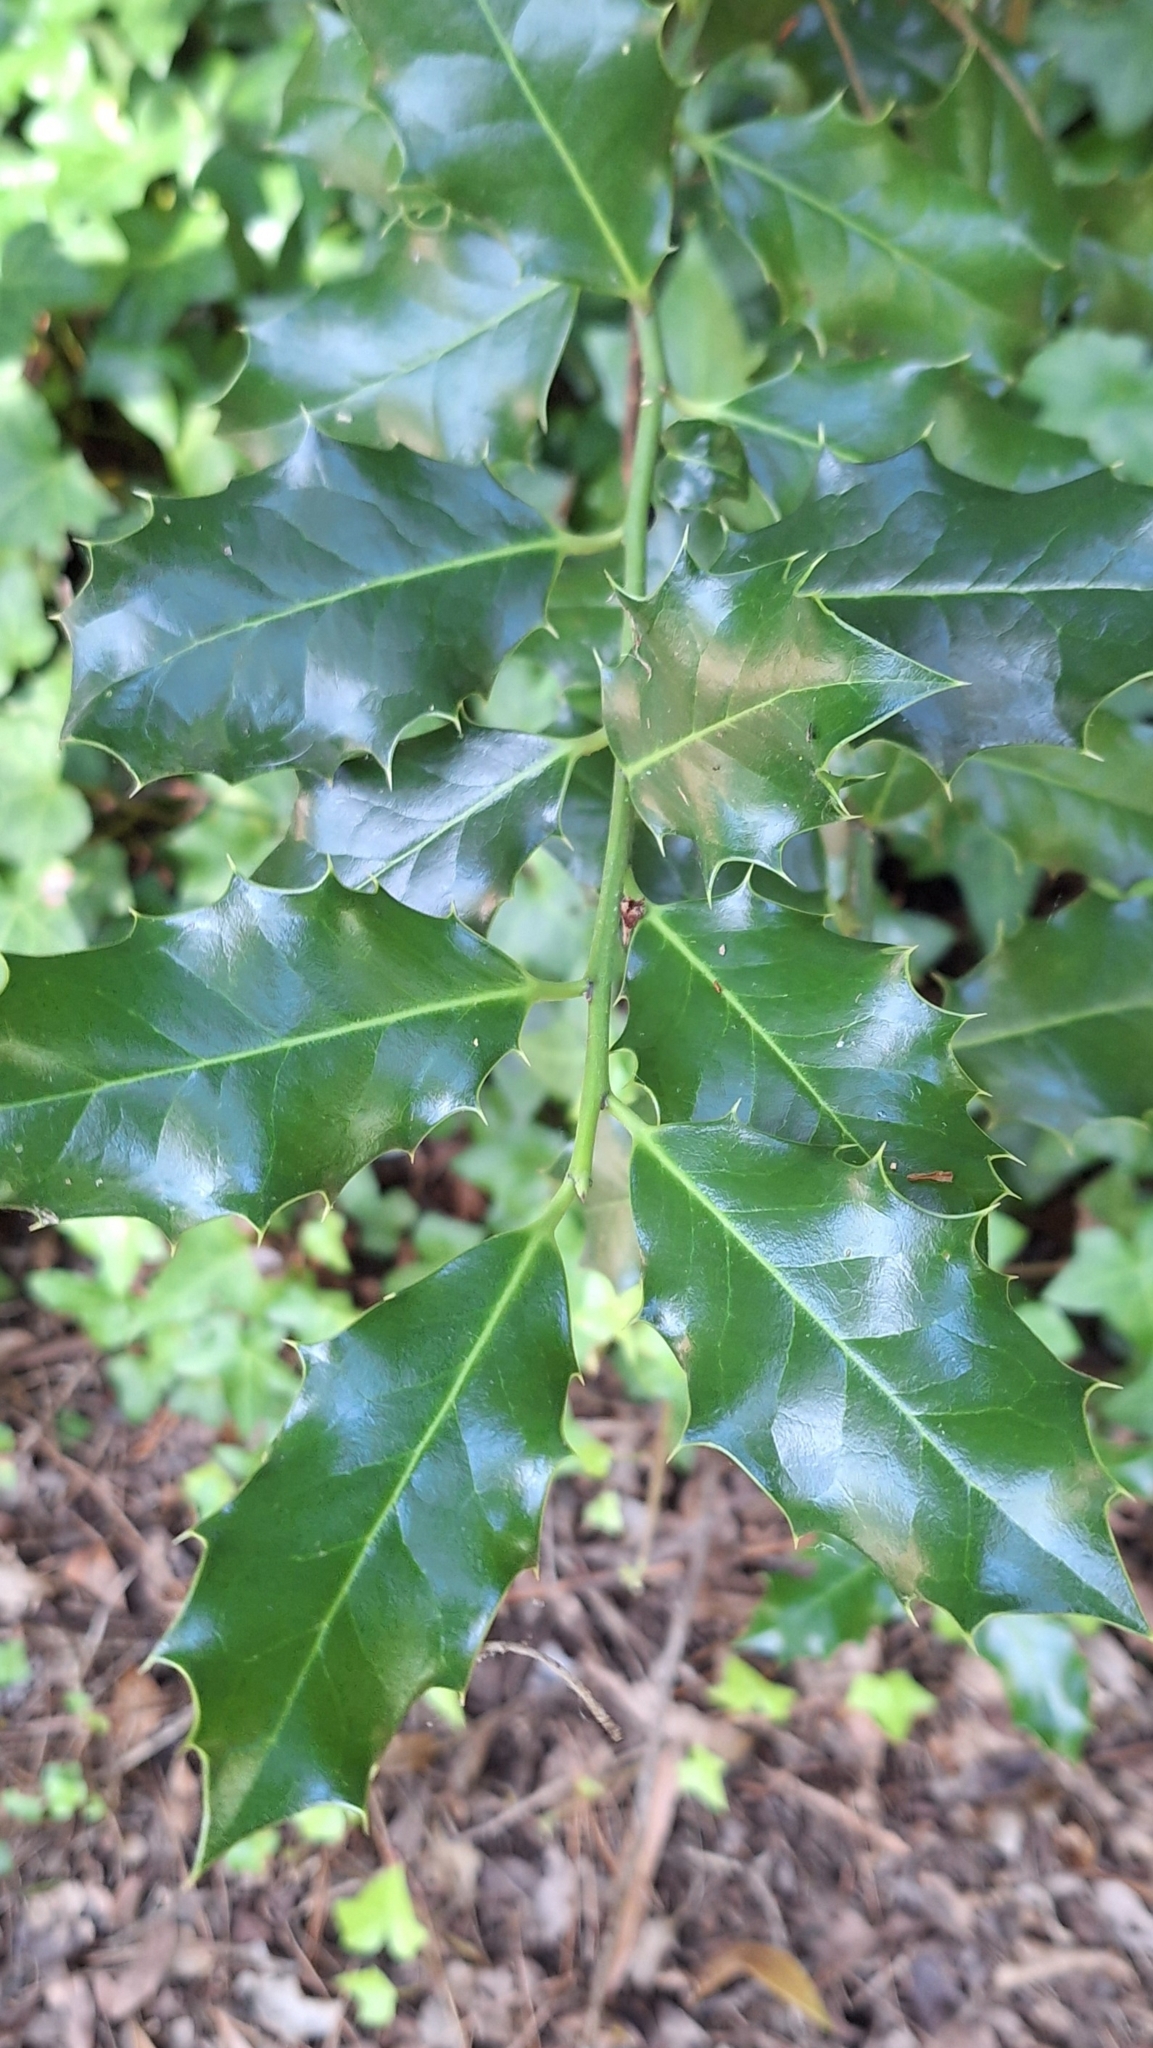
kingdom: Plantae
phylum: Tracheophyta
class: Magnoliopsida
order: Aquifoliales
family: Aquifoliaceae
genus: Ilex
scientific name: Ilex aquifolium
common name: English holly
